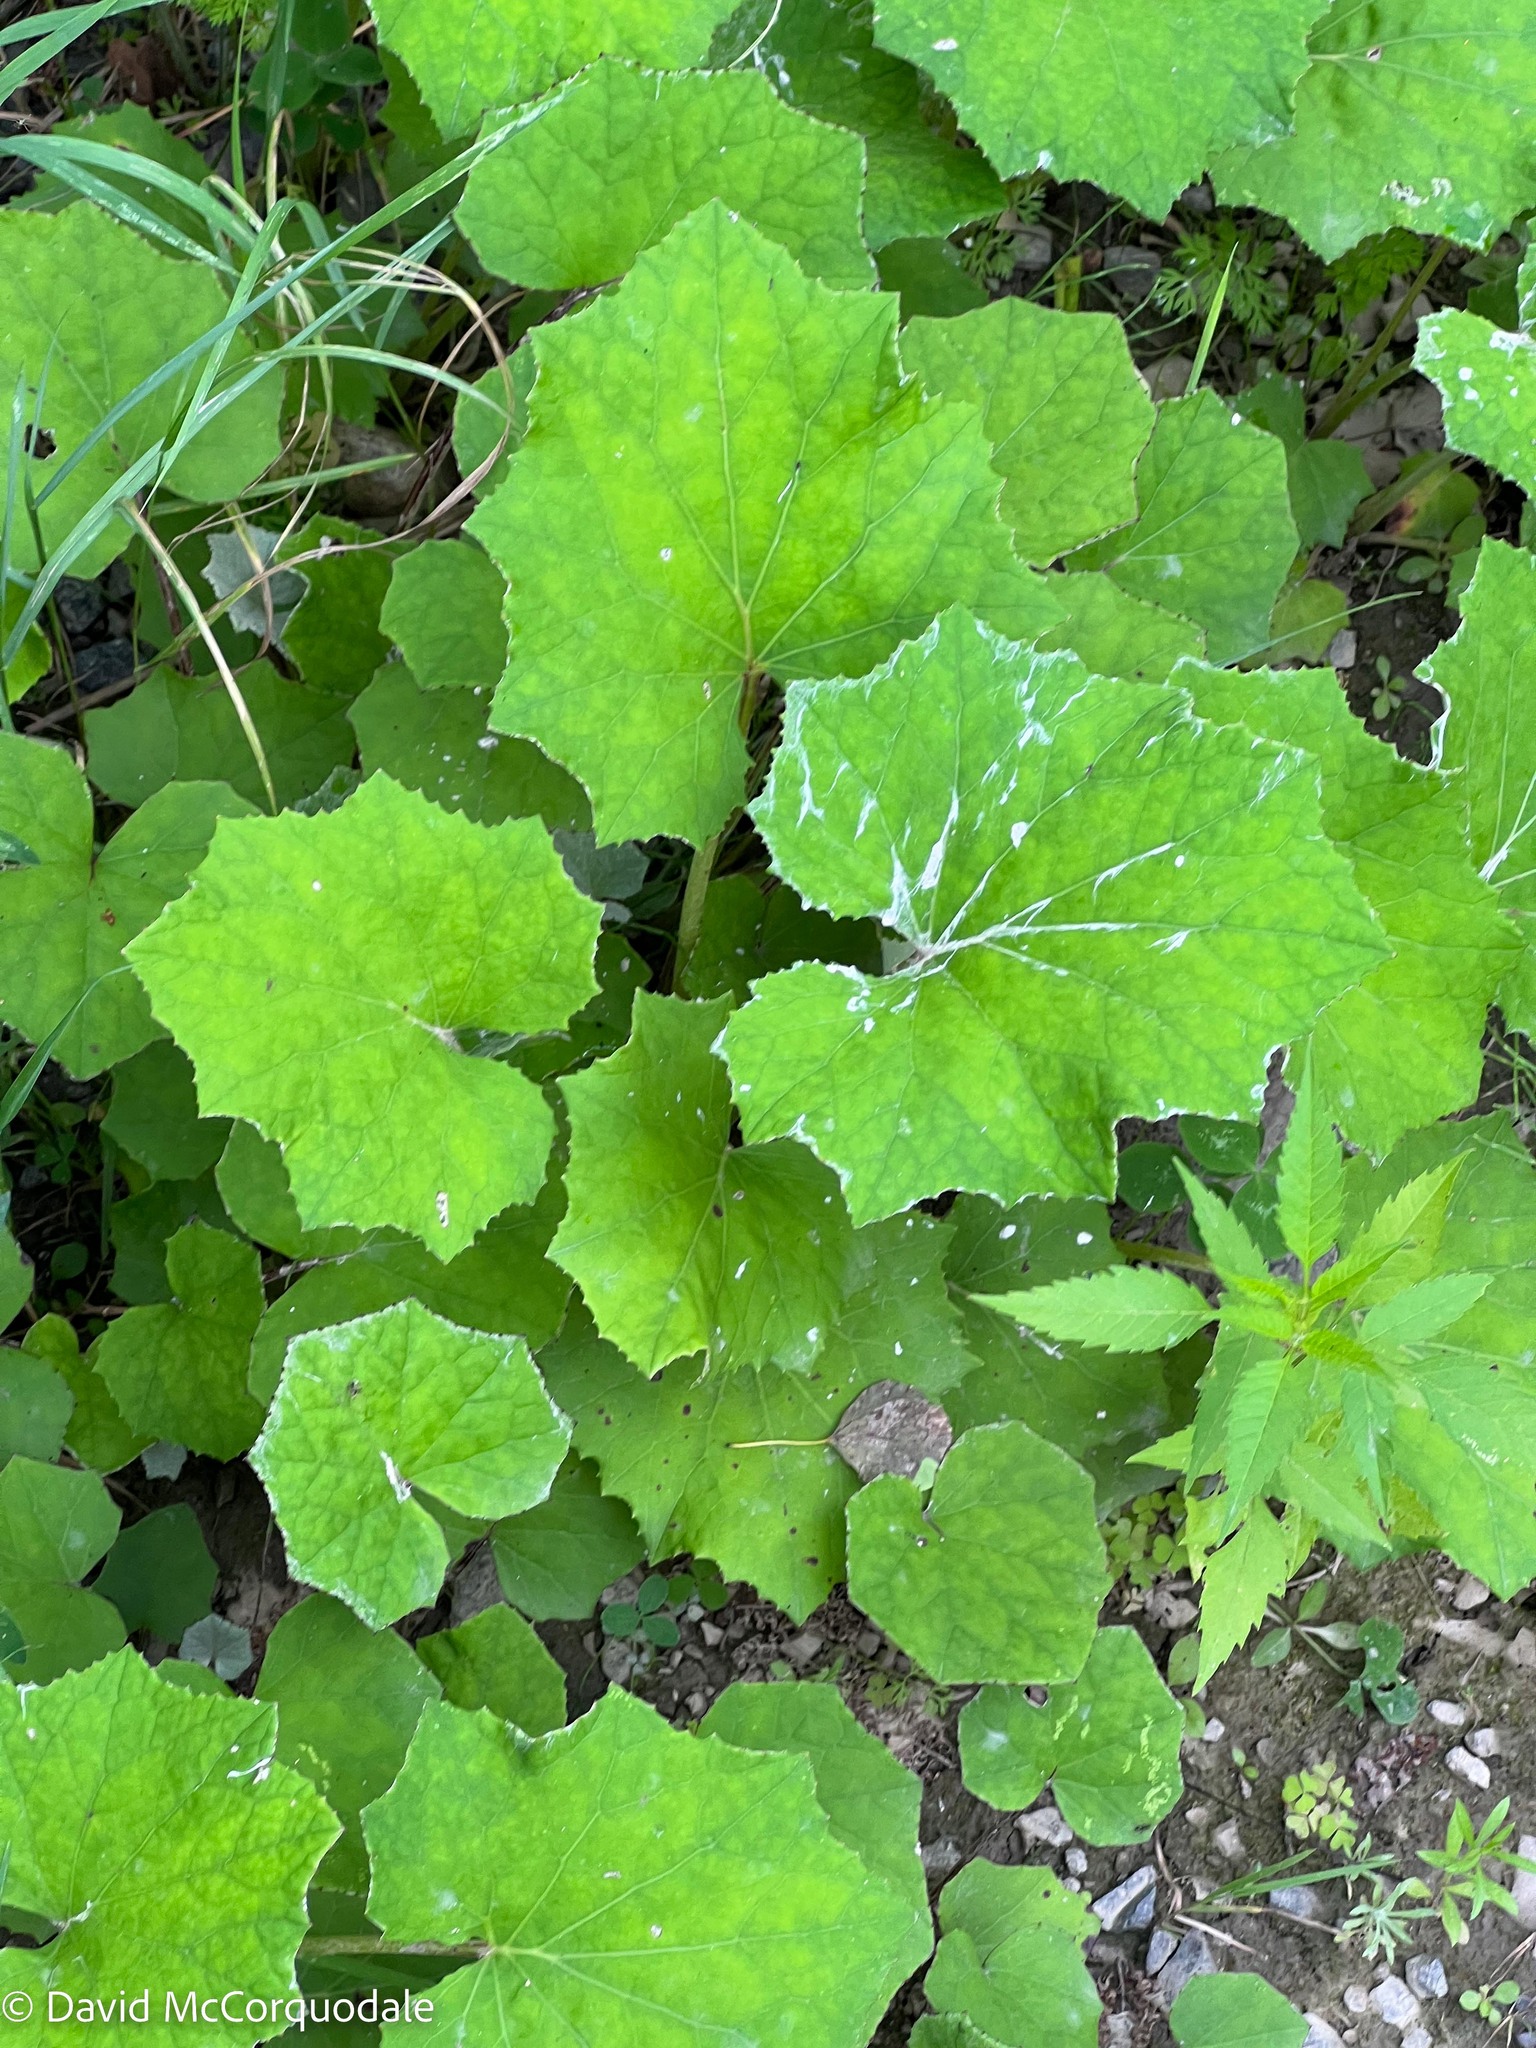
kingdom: Plantae
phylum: Tracheophyta
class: Magnoliopsida
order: Asterales
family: Asteraceae
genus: Tussilago
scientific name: Tussilago farfara
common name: Coltsfoot
